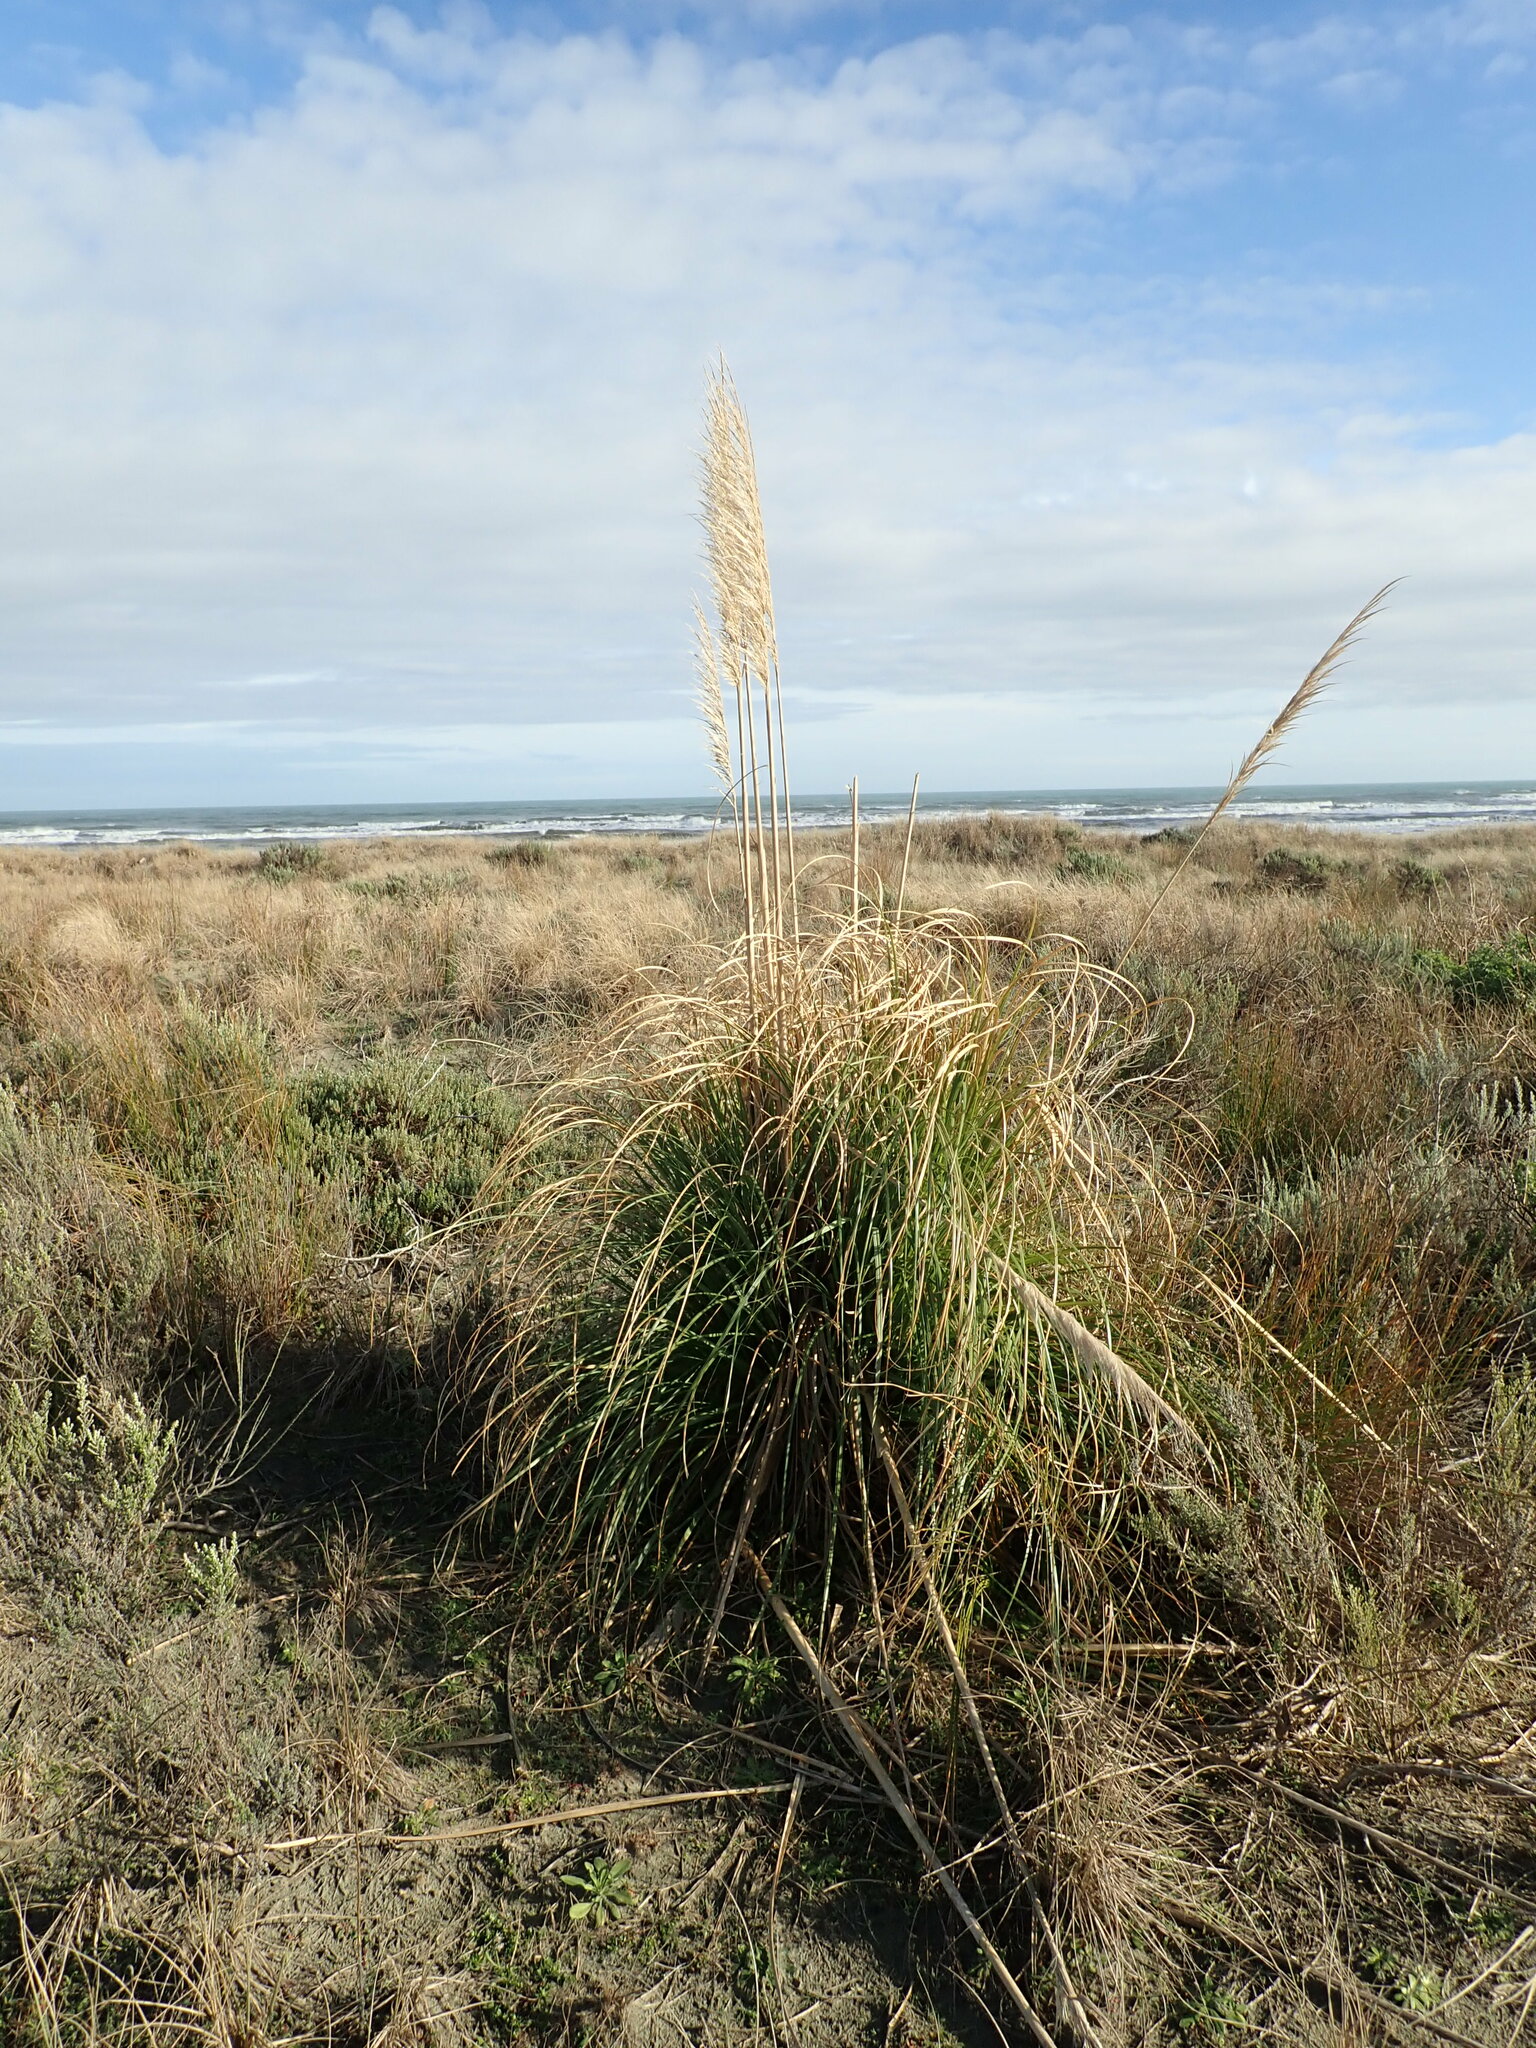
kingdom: Plantae
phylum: Tracheophyta
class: Liliopsida
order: Poales
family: Poaceae
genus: Cortaderia
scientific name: Cortaderia selloana
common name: Uruguayan pampas grass
